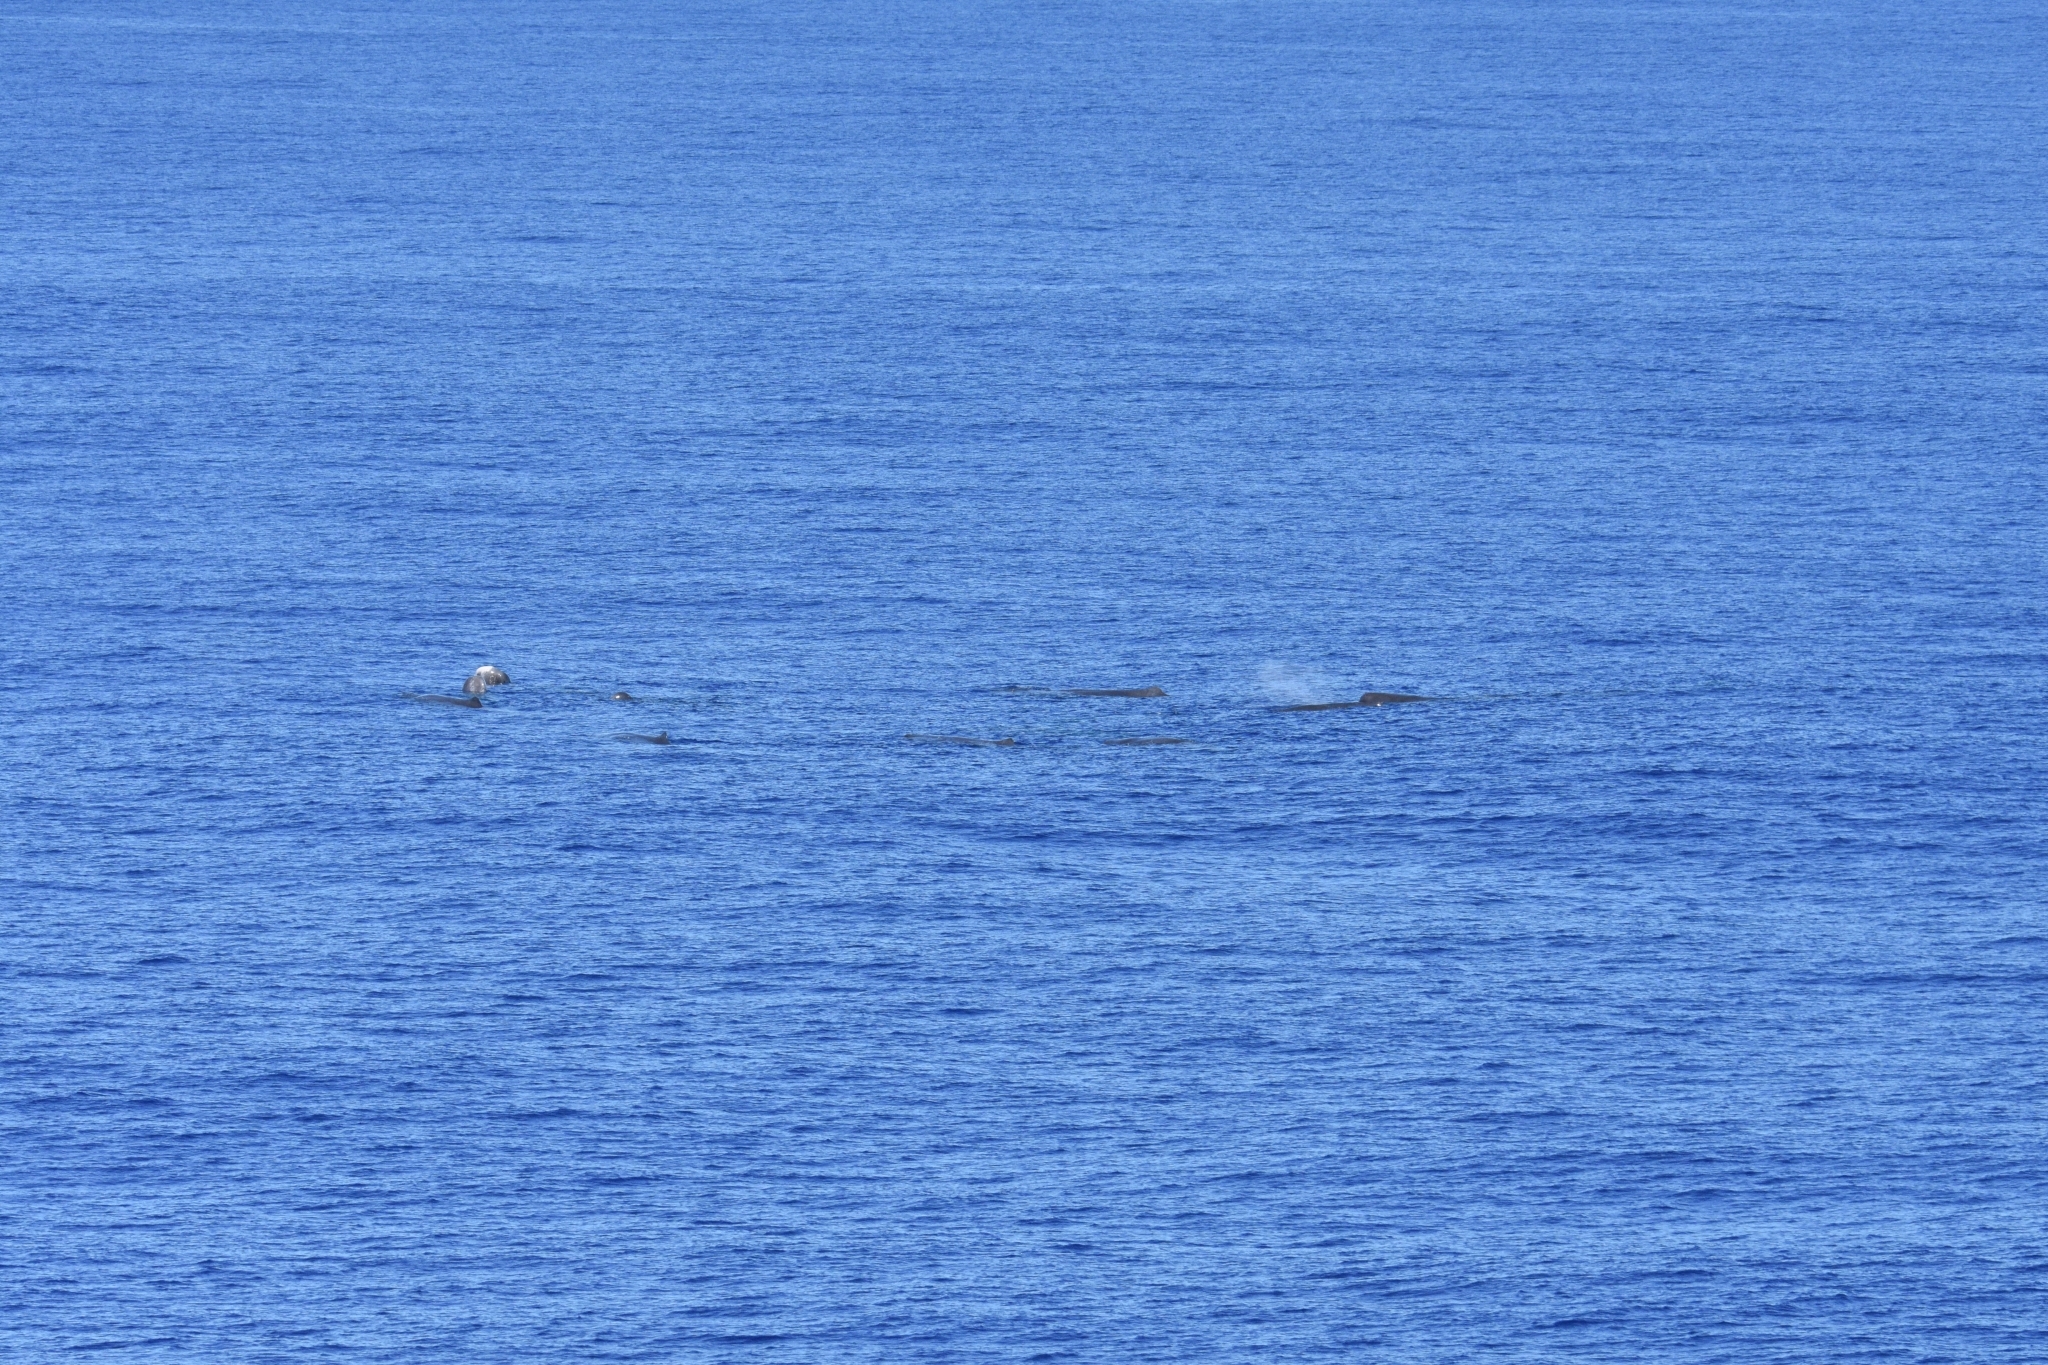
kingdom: Animalia
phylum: Chordata
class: Mammalia
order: Cetacea
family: Physeteridae
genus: Physeter
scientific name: Physeter macrocephalus
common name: Sperm whale
